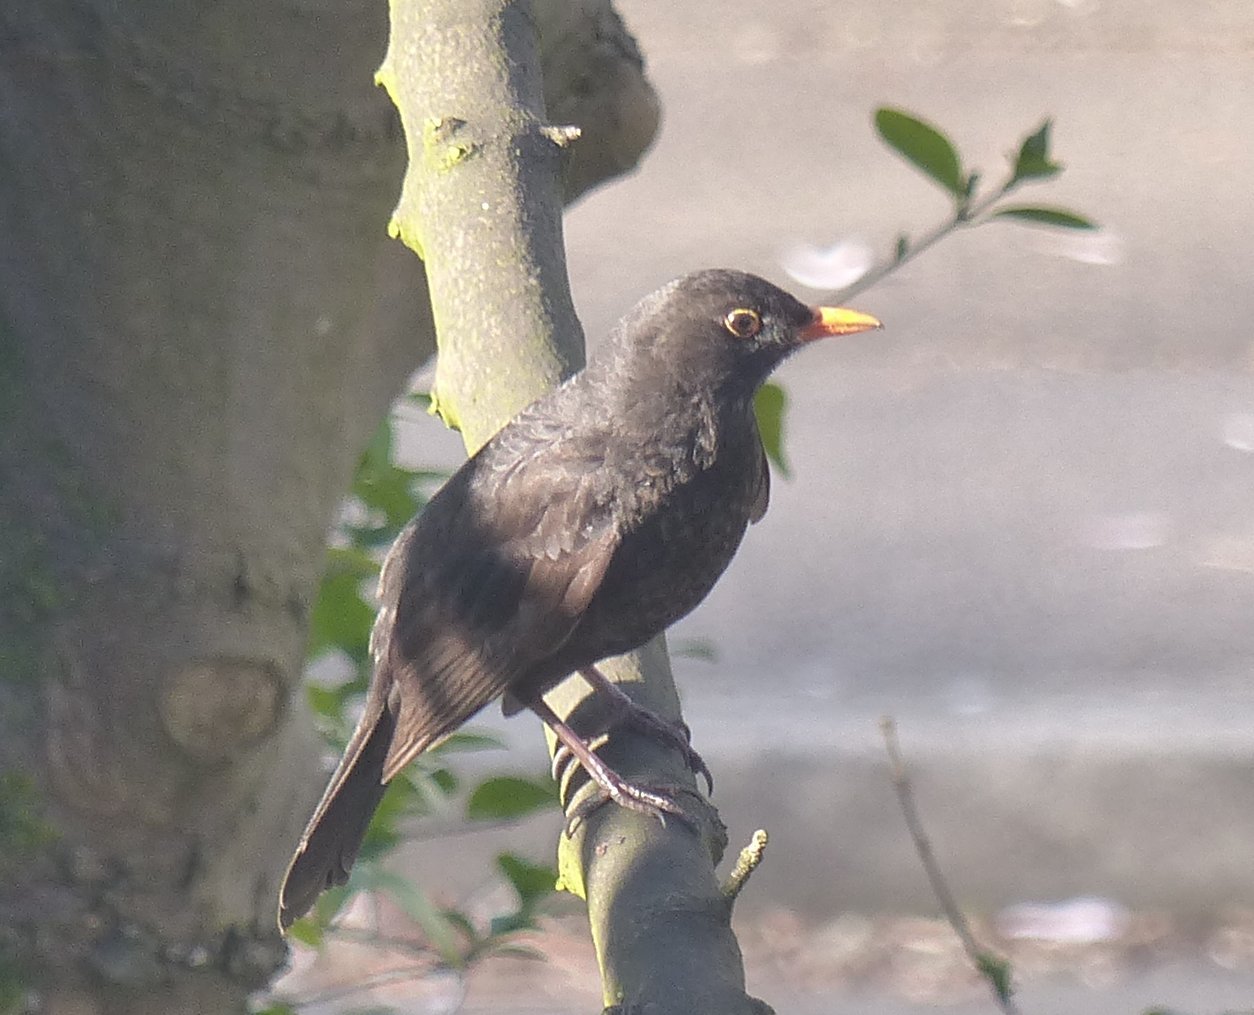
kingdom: Animalia
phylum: Chordata
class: Aves
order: Passeriformes
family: Turdidae
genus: Turdus
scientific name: Turdus merula
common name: Common blackbird
